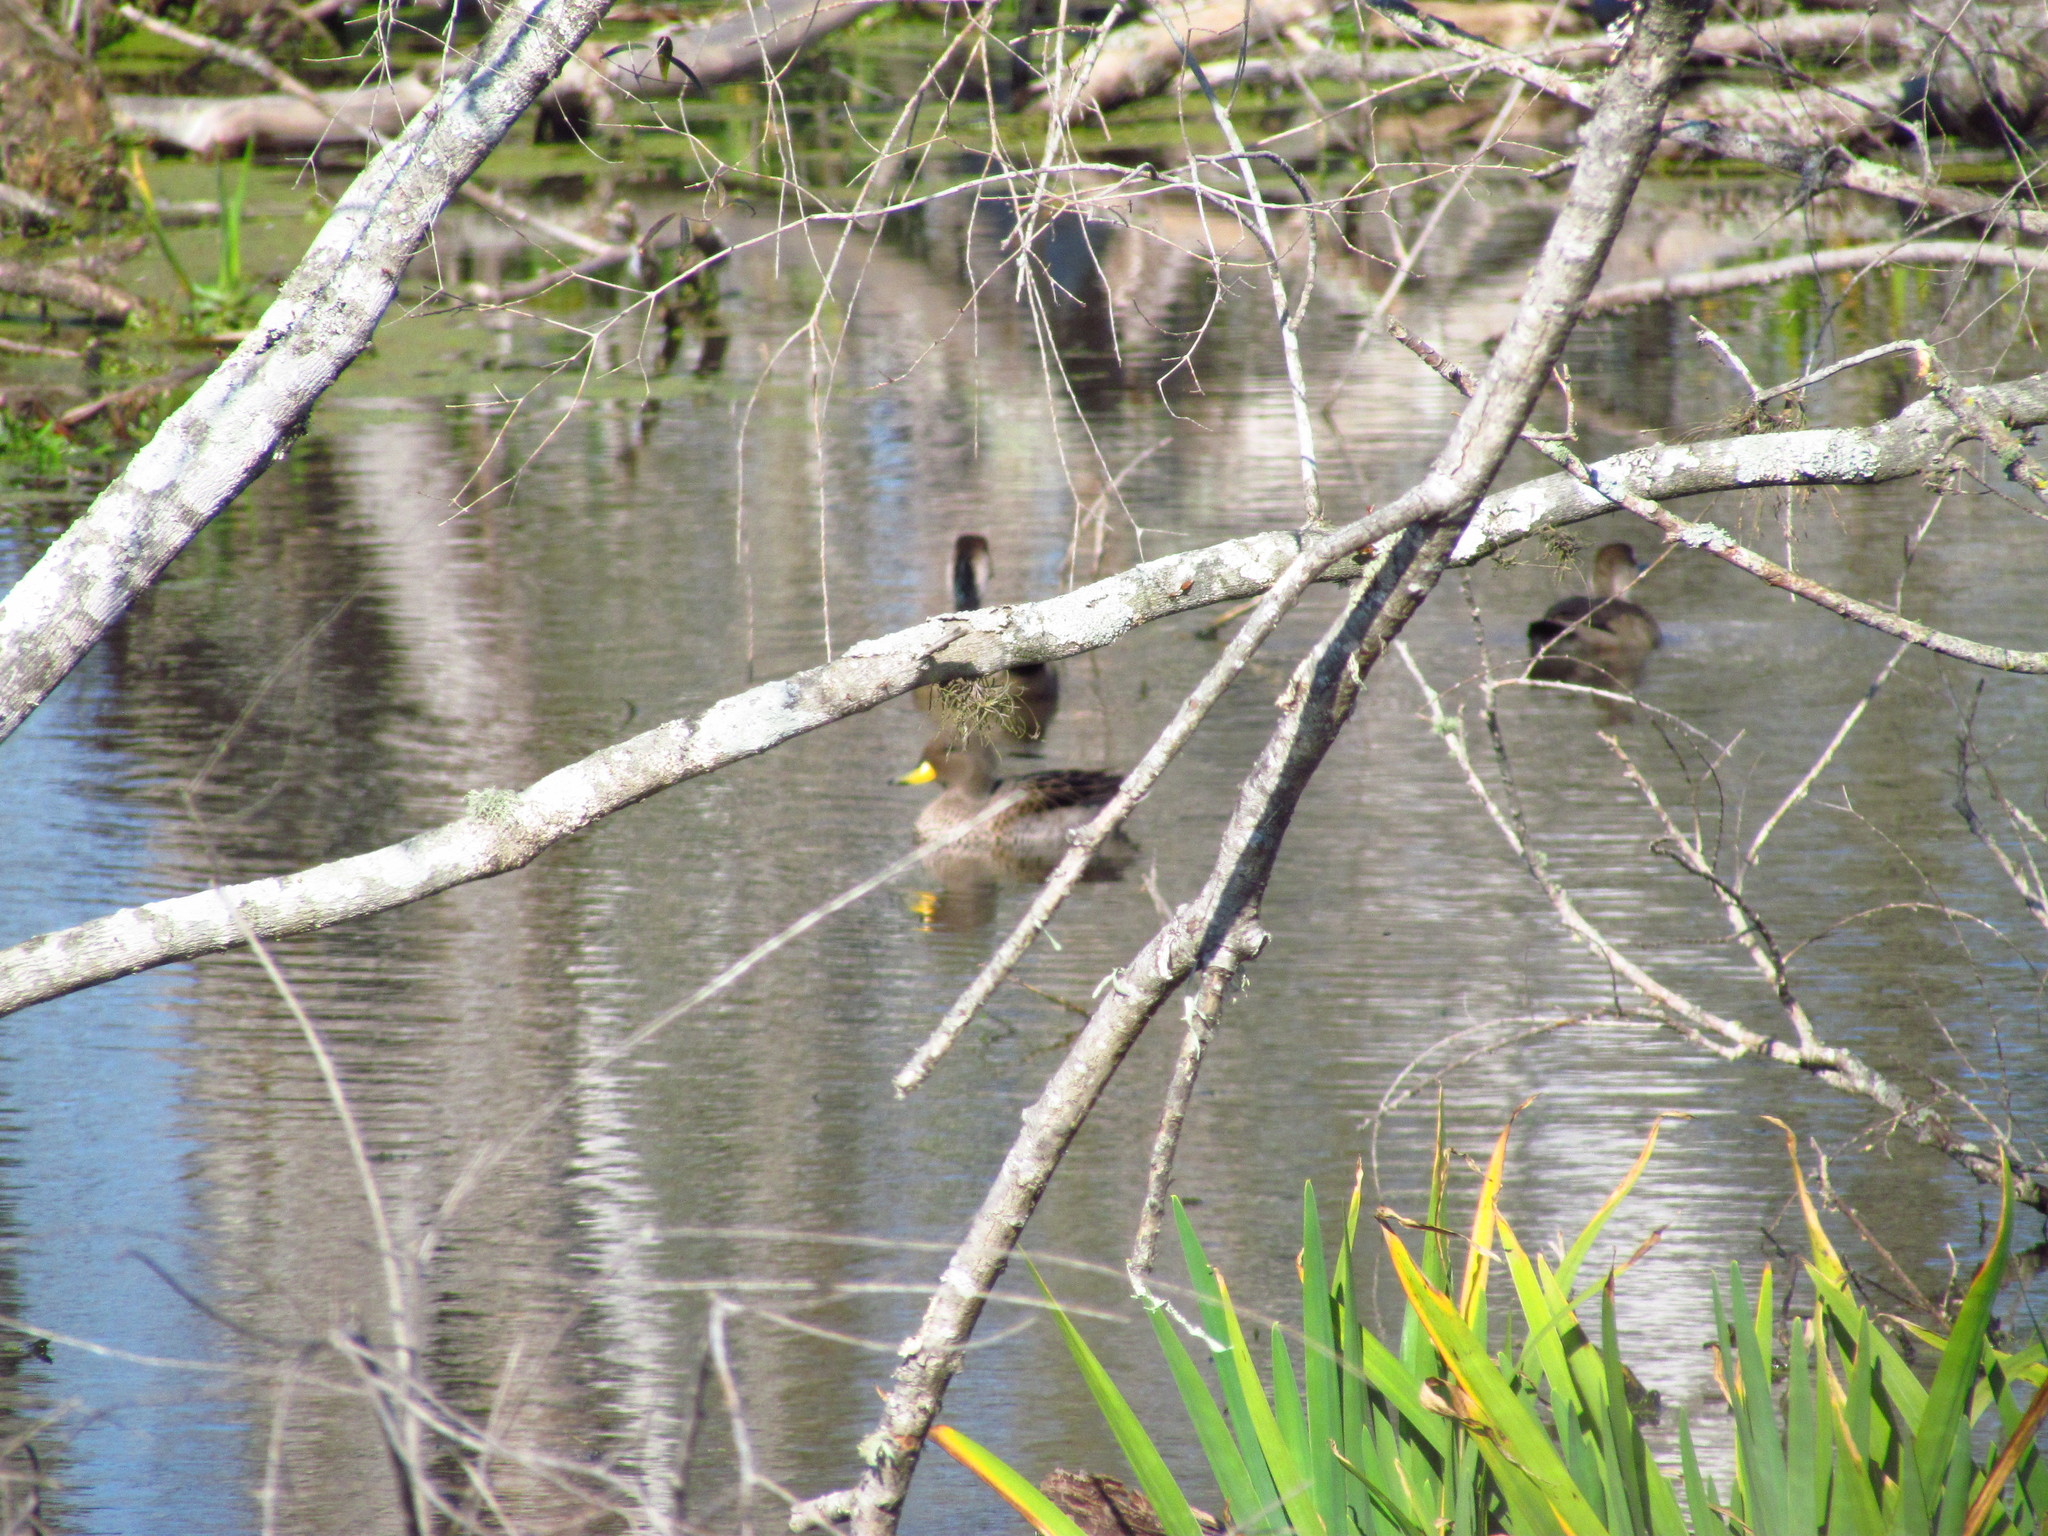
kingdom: Animalia
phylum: Chordata
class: Aves
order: Anseriformes
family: Anatidae
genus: Anas
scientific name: Anas flavirostris
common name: Yellow-billed teal
